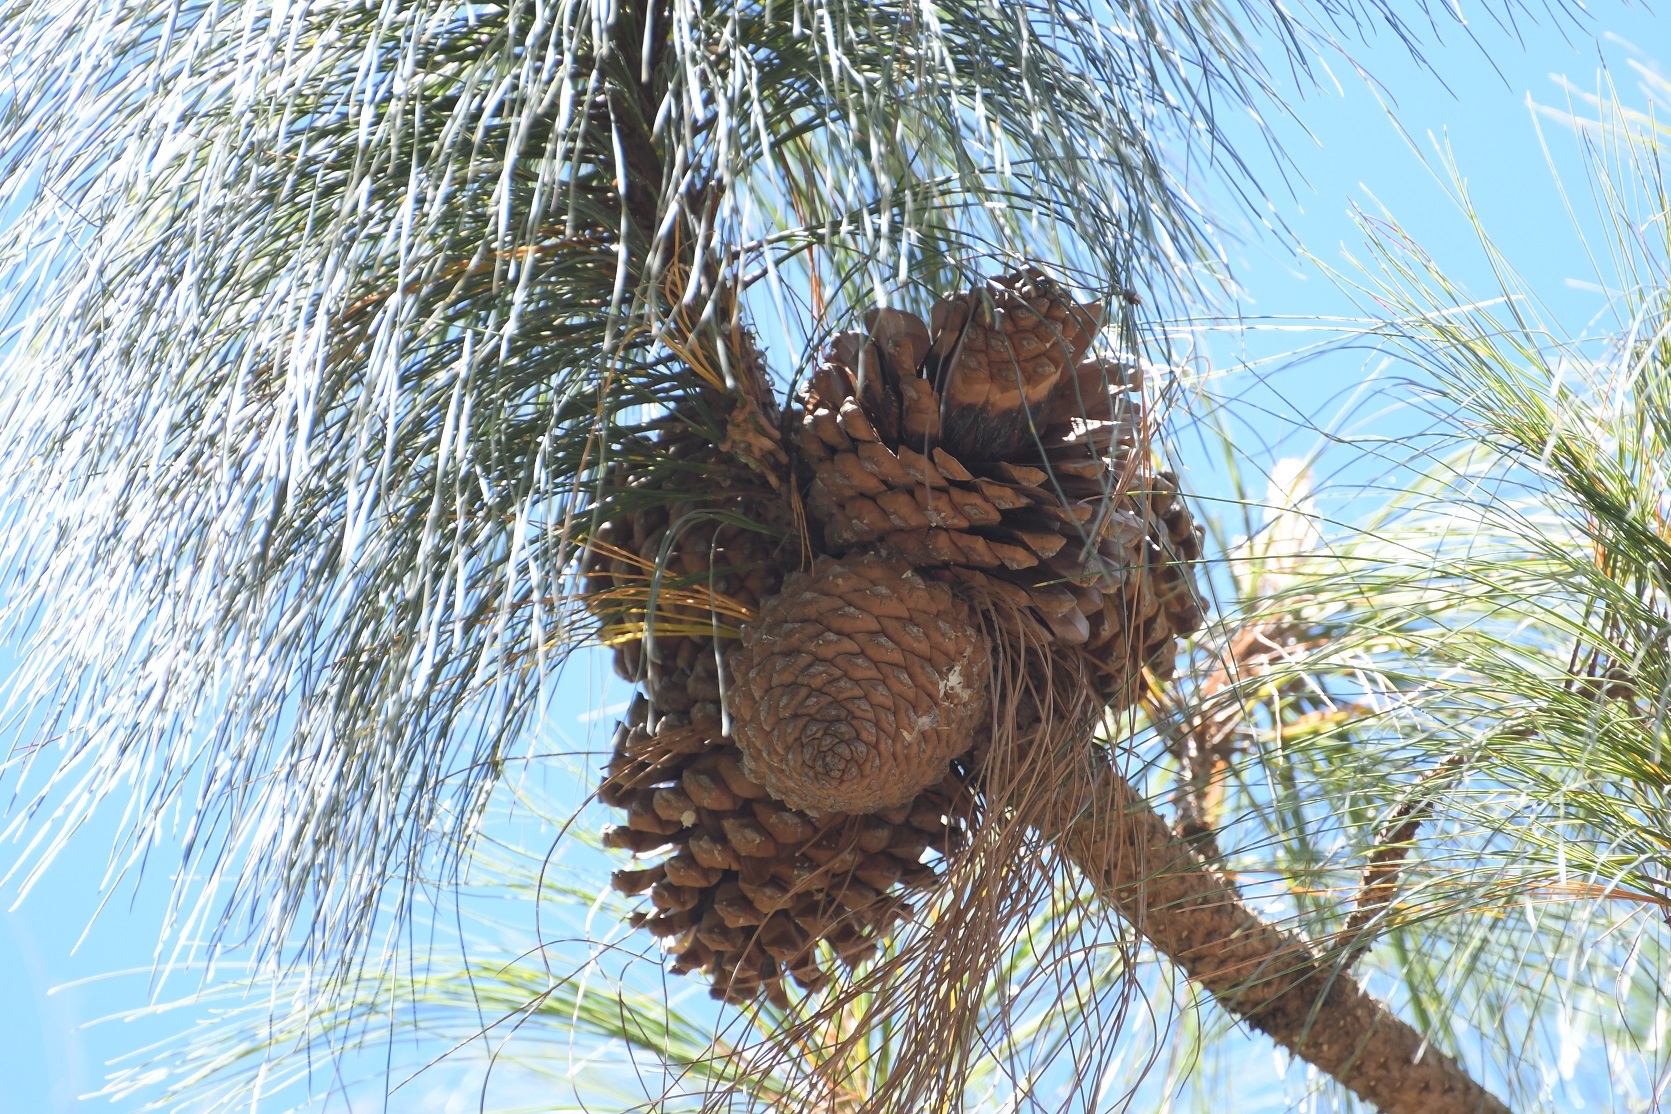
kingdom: Plantae
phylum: Tracheophyta
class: Pinopsida
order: Pinales
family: Pinaceae
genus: Pinus
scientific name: Pinus pseudostrobus
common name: False weymouth pine
